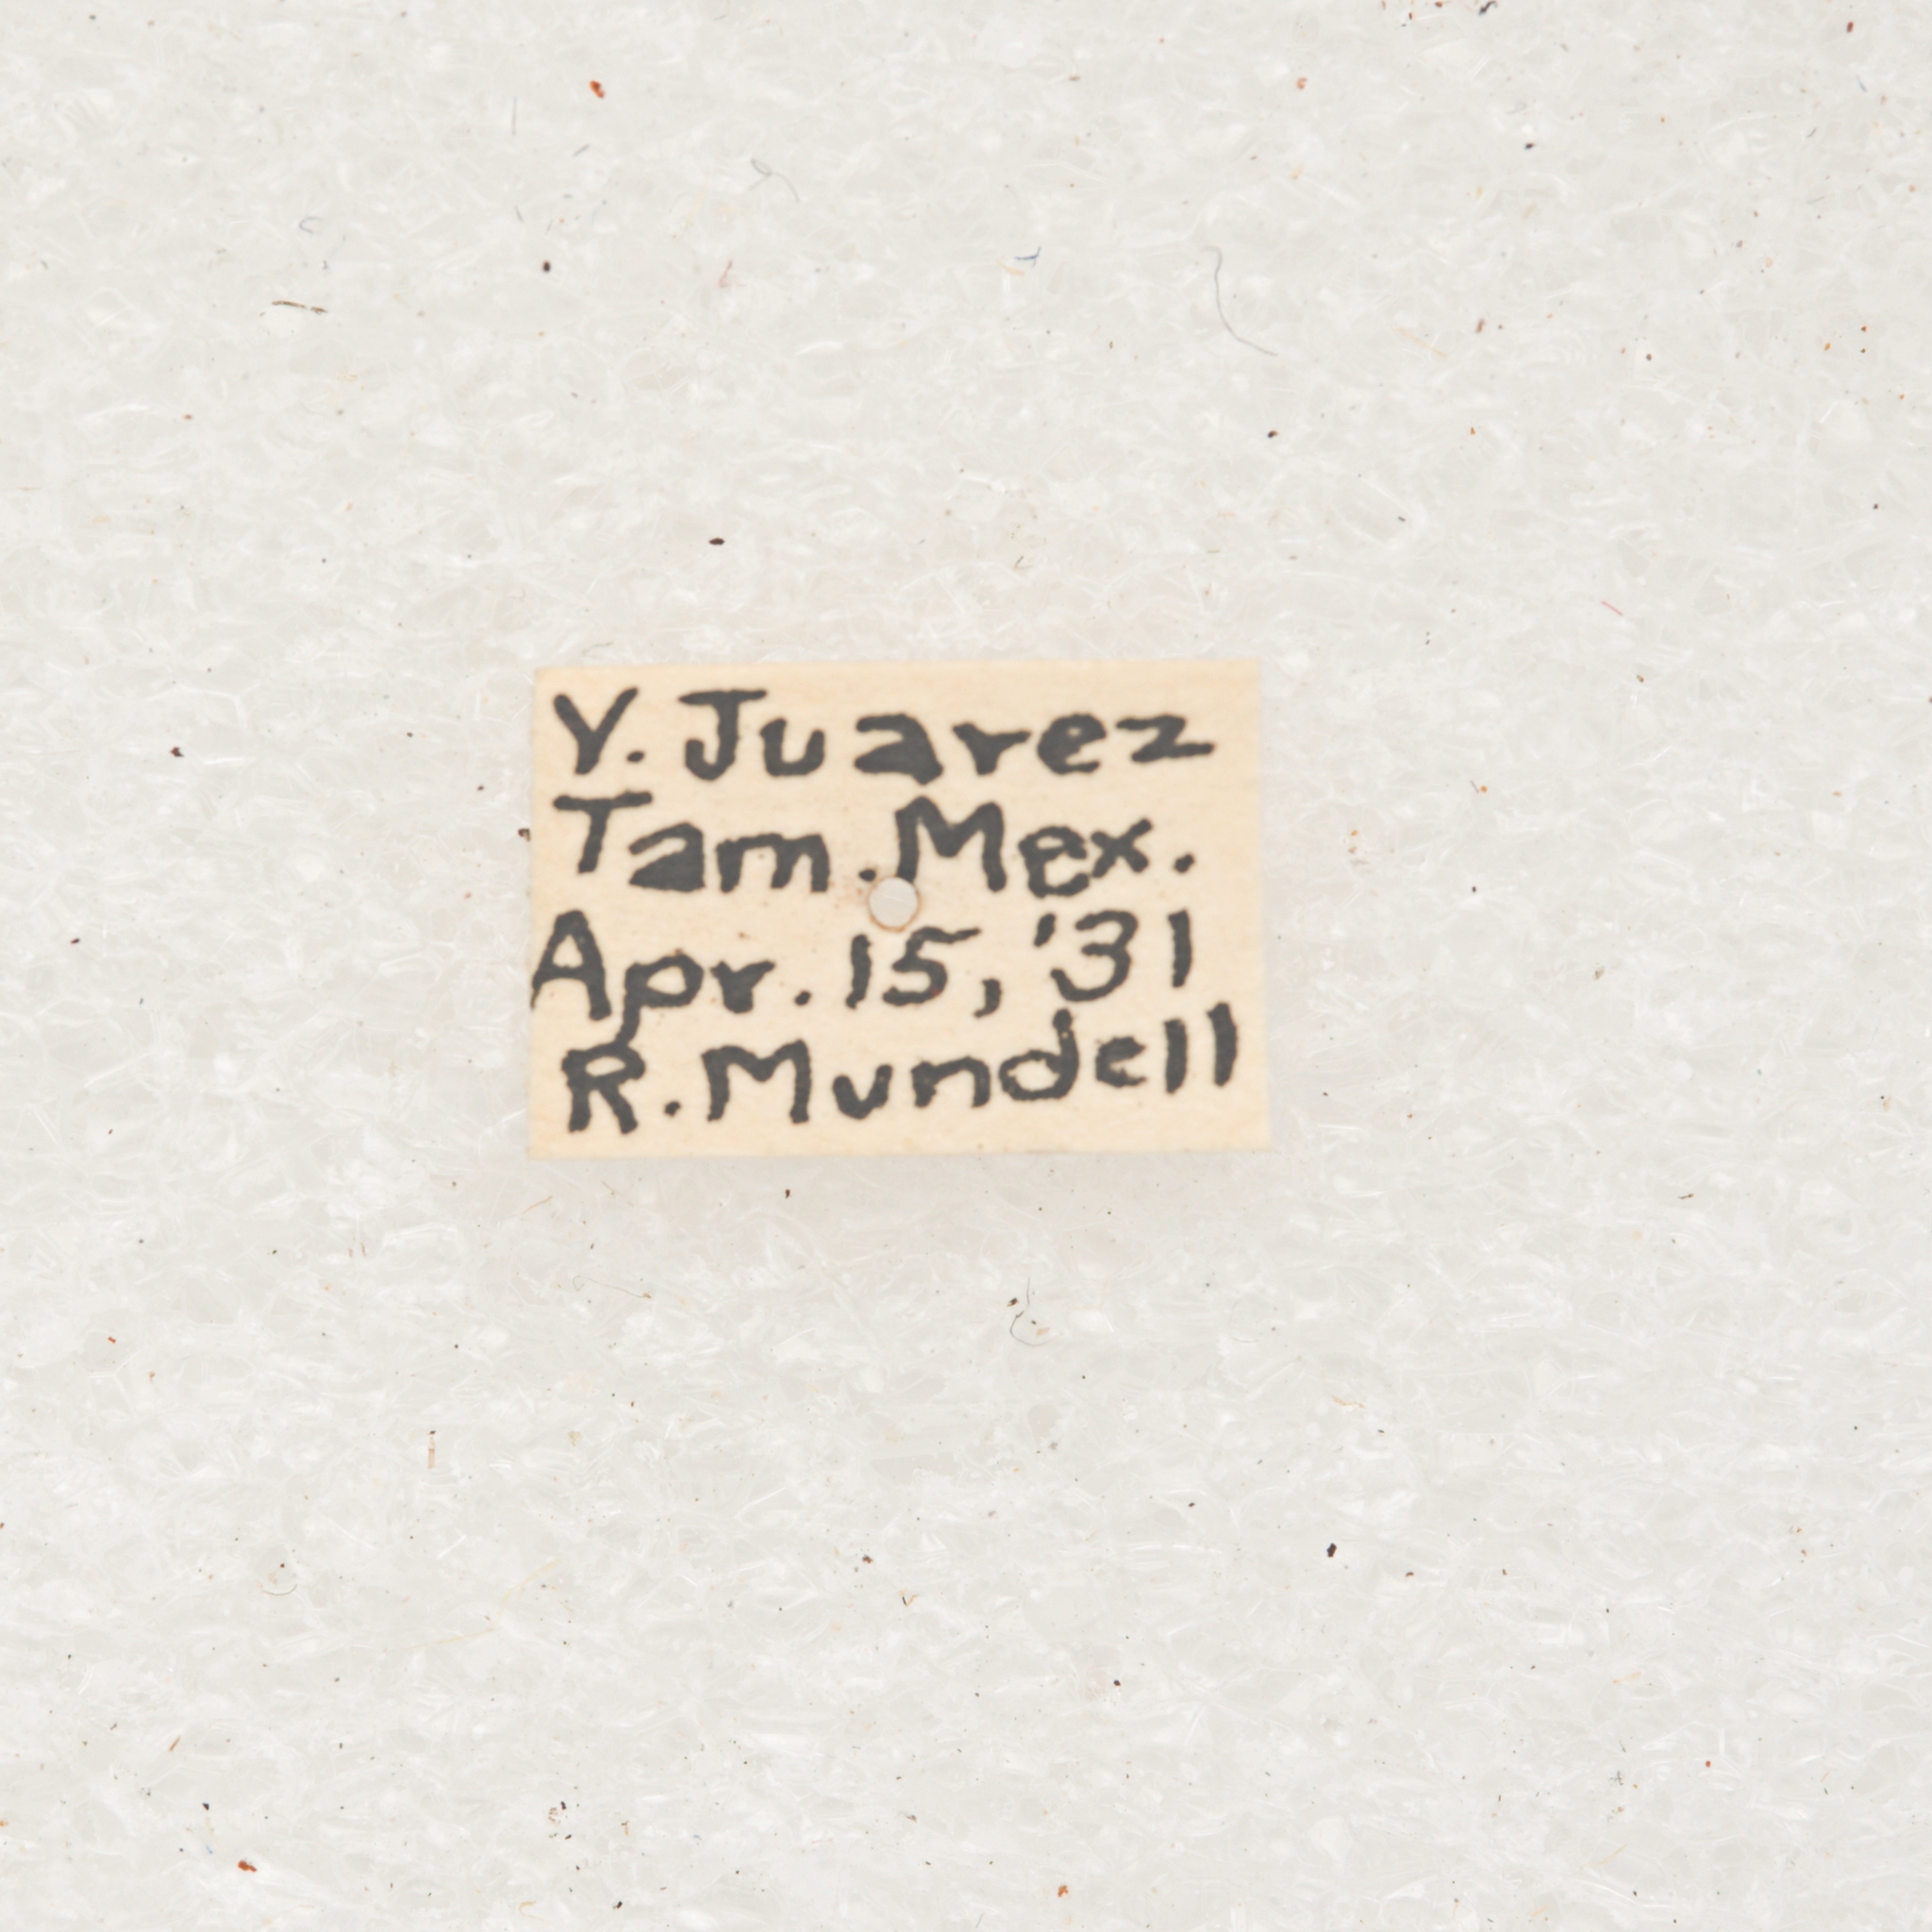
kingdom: Animalia
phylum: Arthropoda
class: Insecta
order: Coleoptera
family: Cerambycidae
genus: Moneilema
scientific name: Moneilema blapsides
